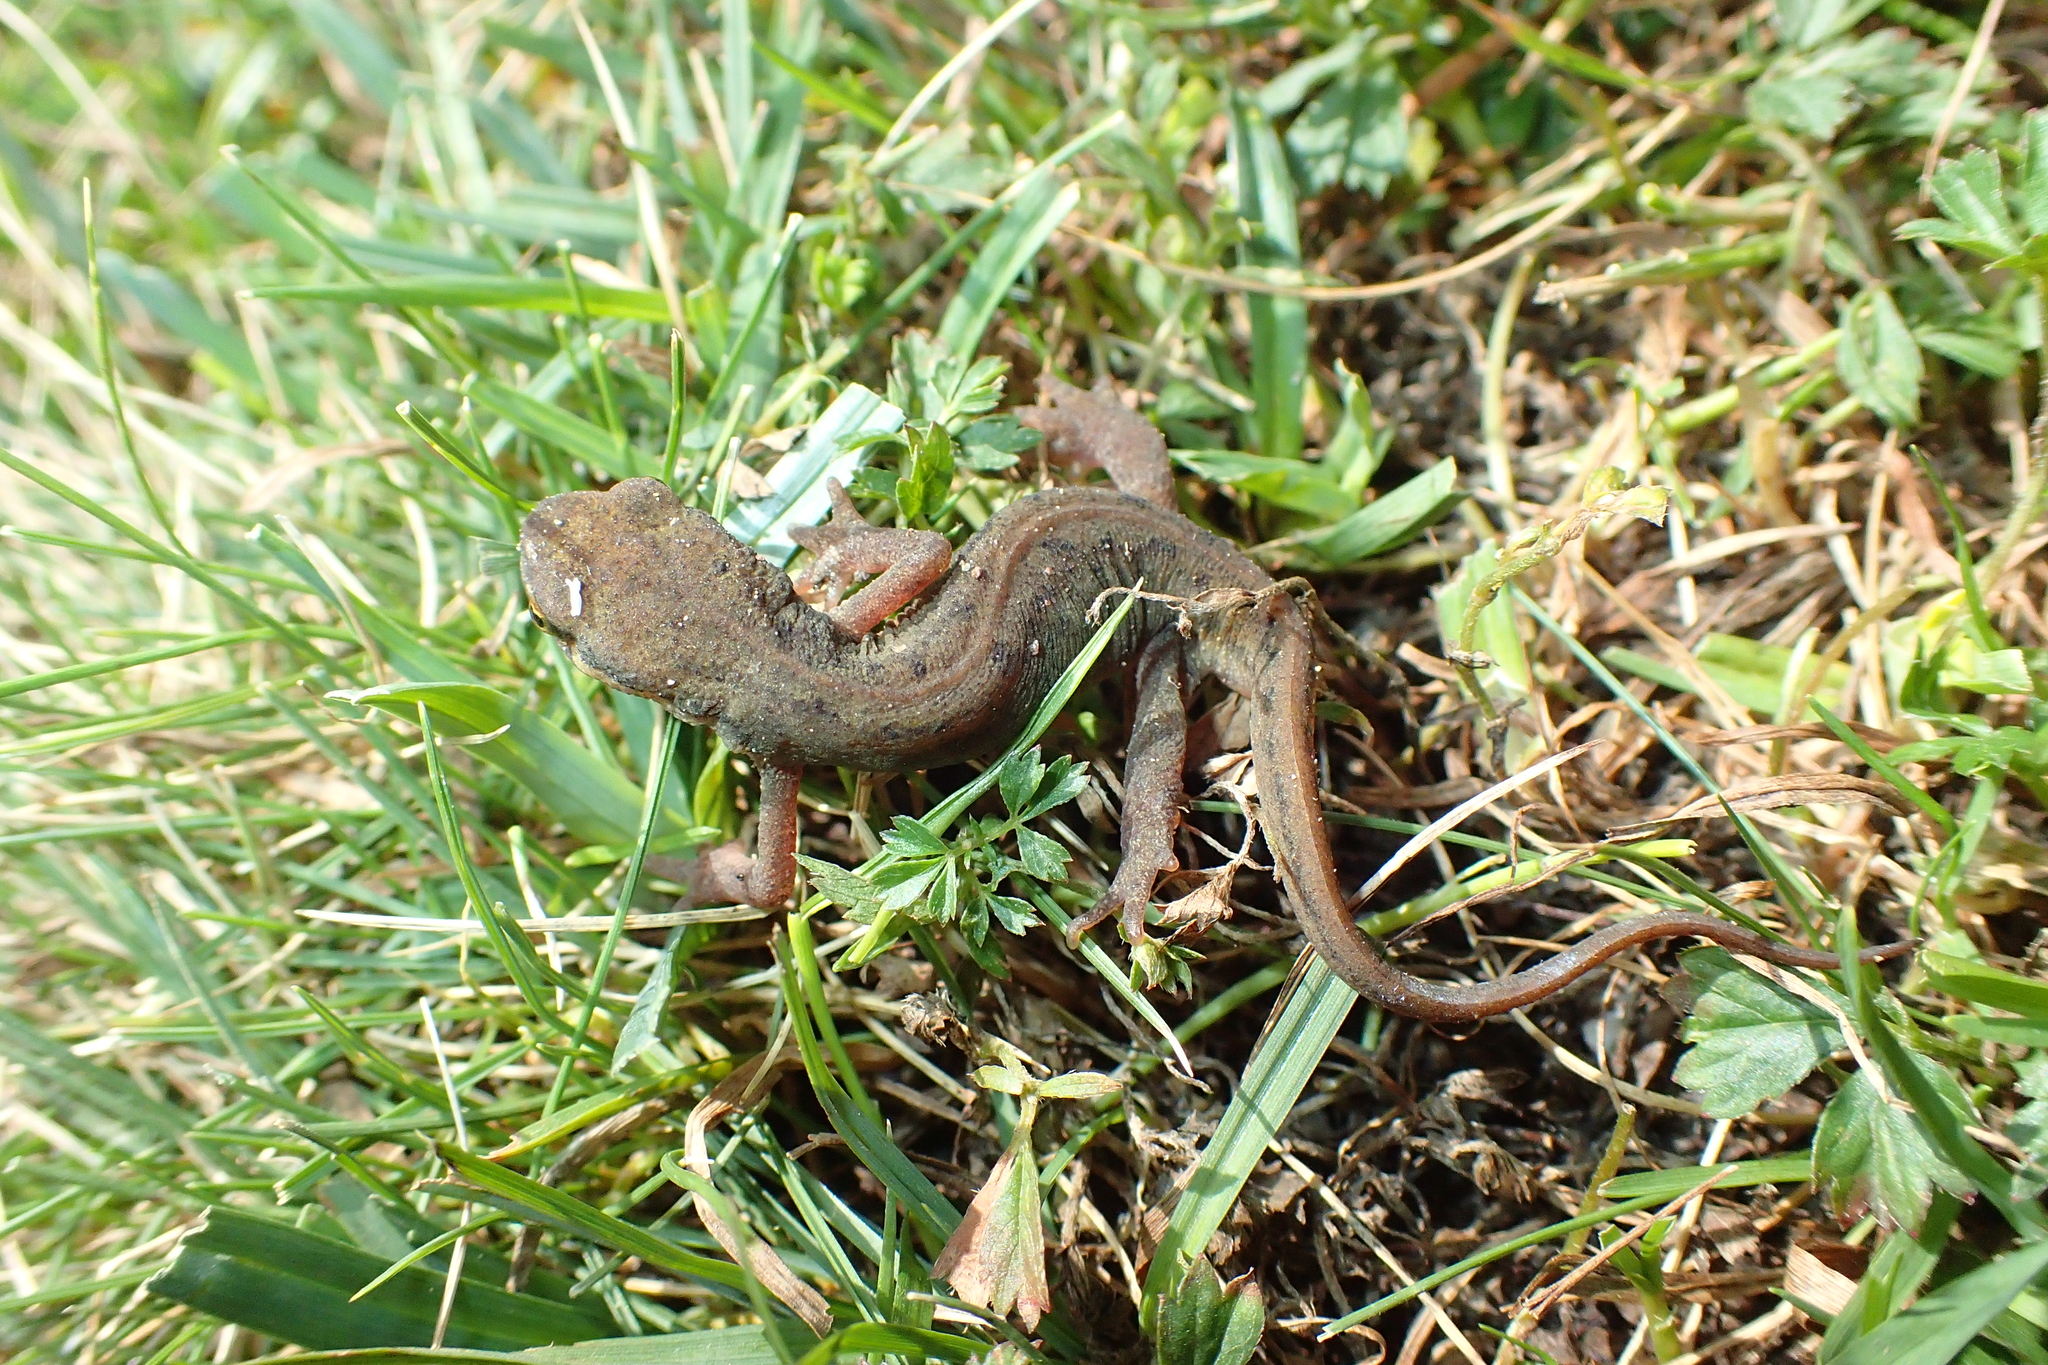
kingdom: Animalia
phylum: Chordata
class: Amphibia
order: Caudata
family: Salamandridae
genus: Lissotriton
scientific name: Lissotriton helveticus
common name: Palmate newt
